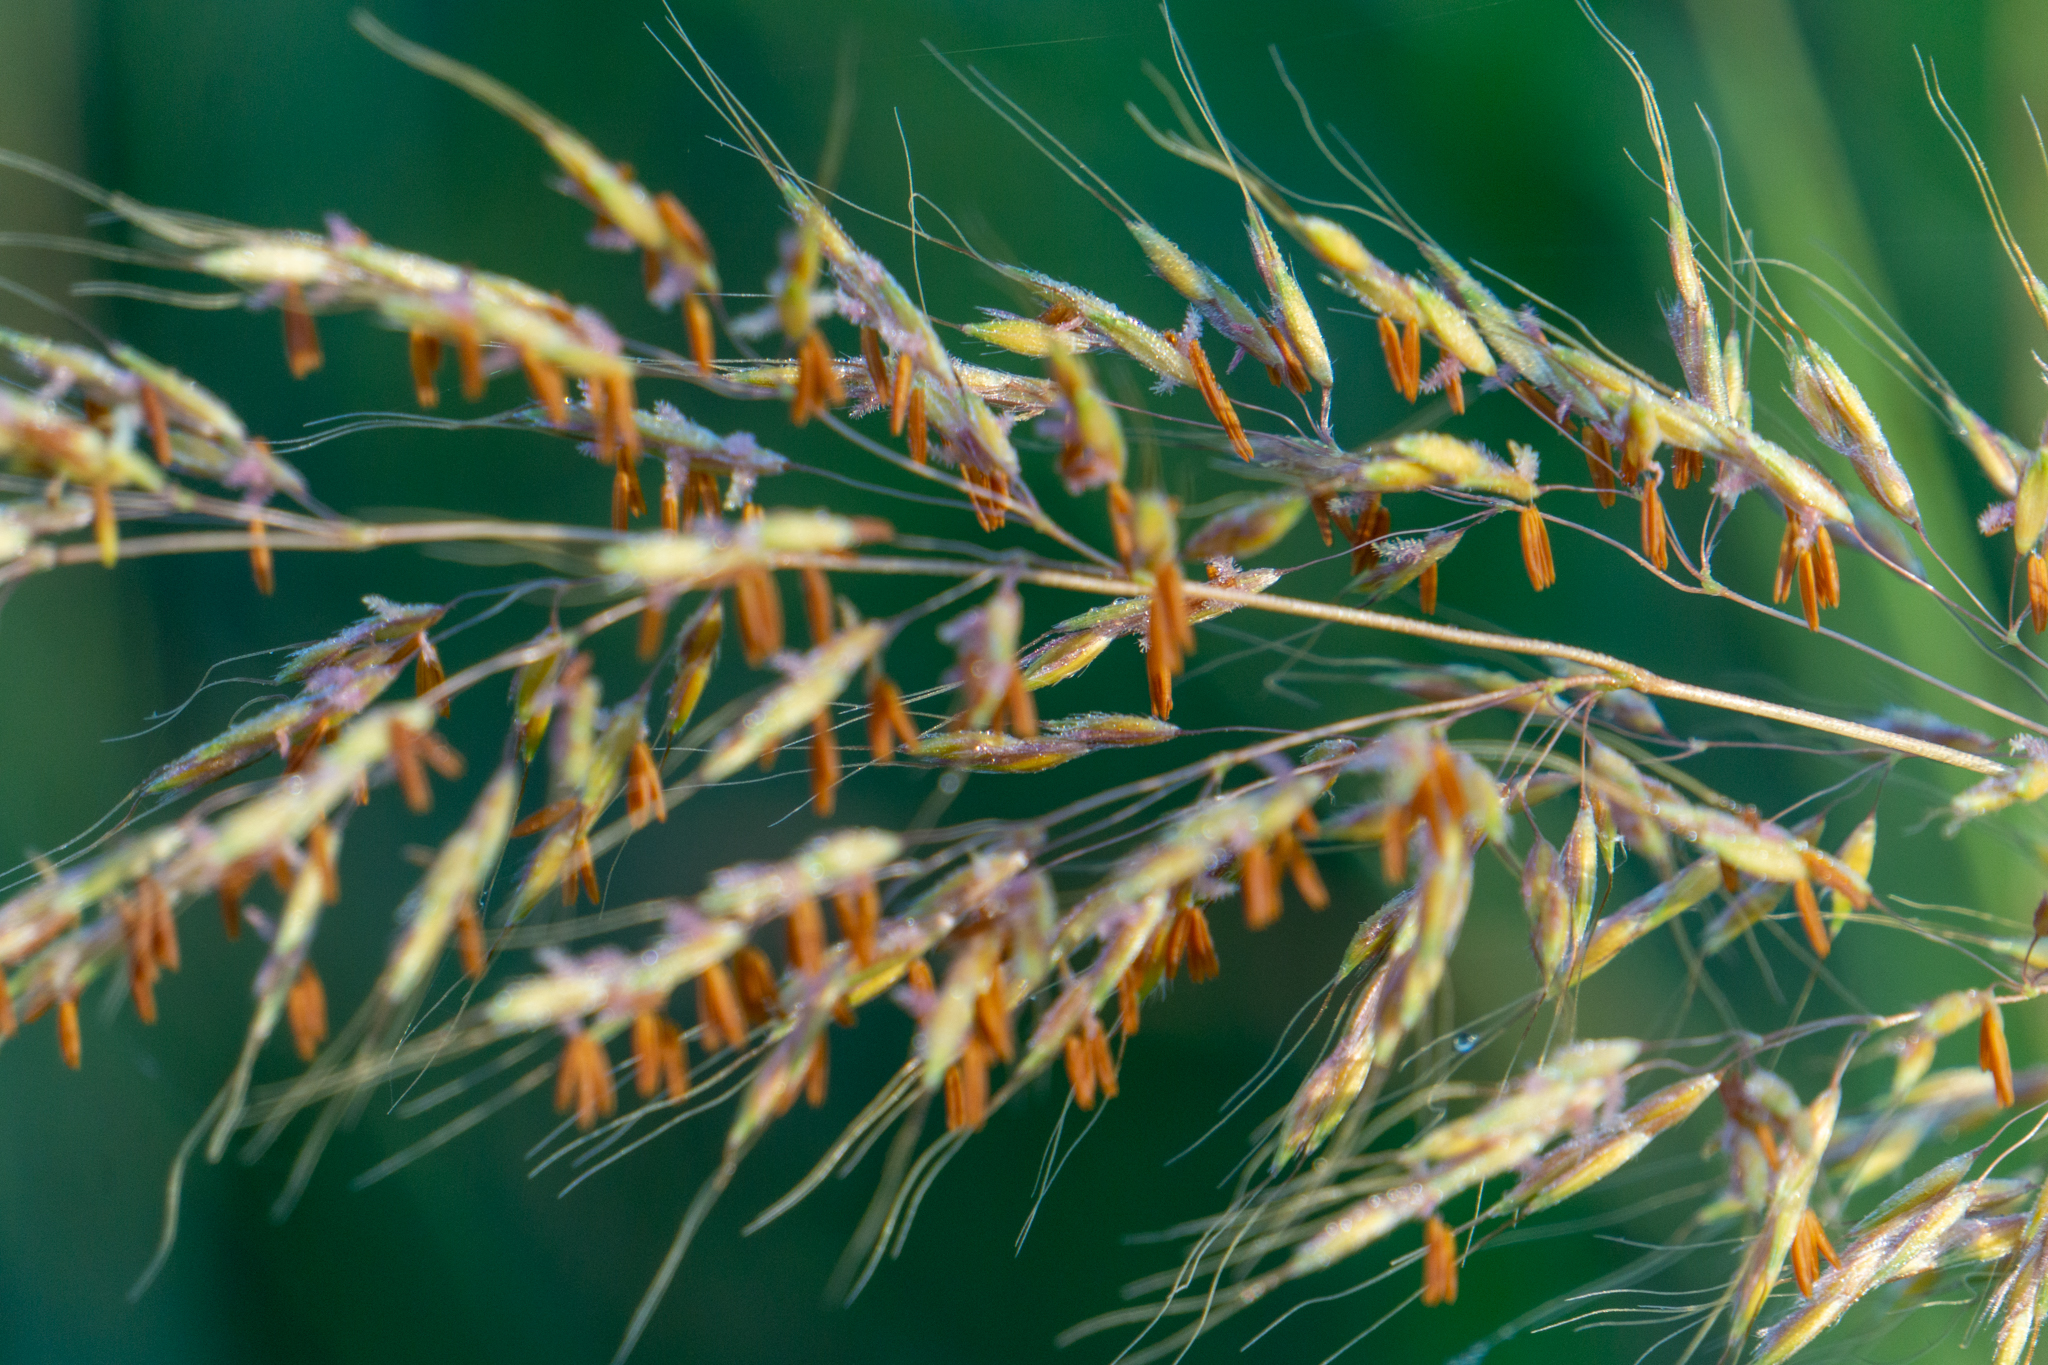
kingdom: Plantae
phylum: Tracheophyta
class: Liliopsida
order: Poales
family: Poaceae
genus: Sorghastrum
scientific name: Sorghastrum nutans
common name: Indian grass
